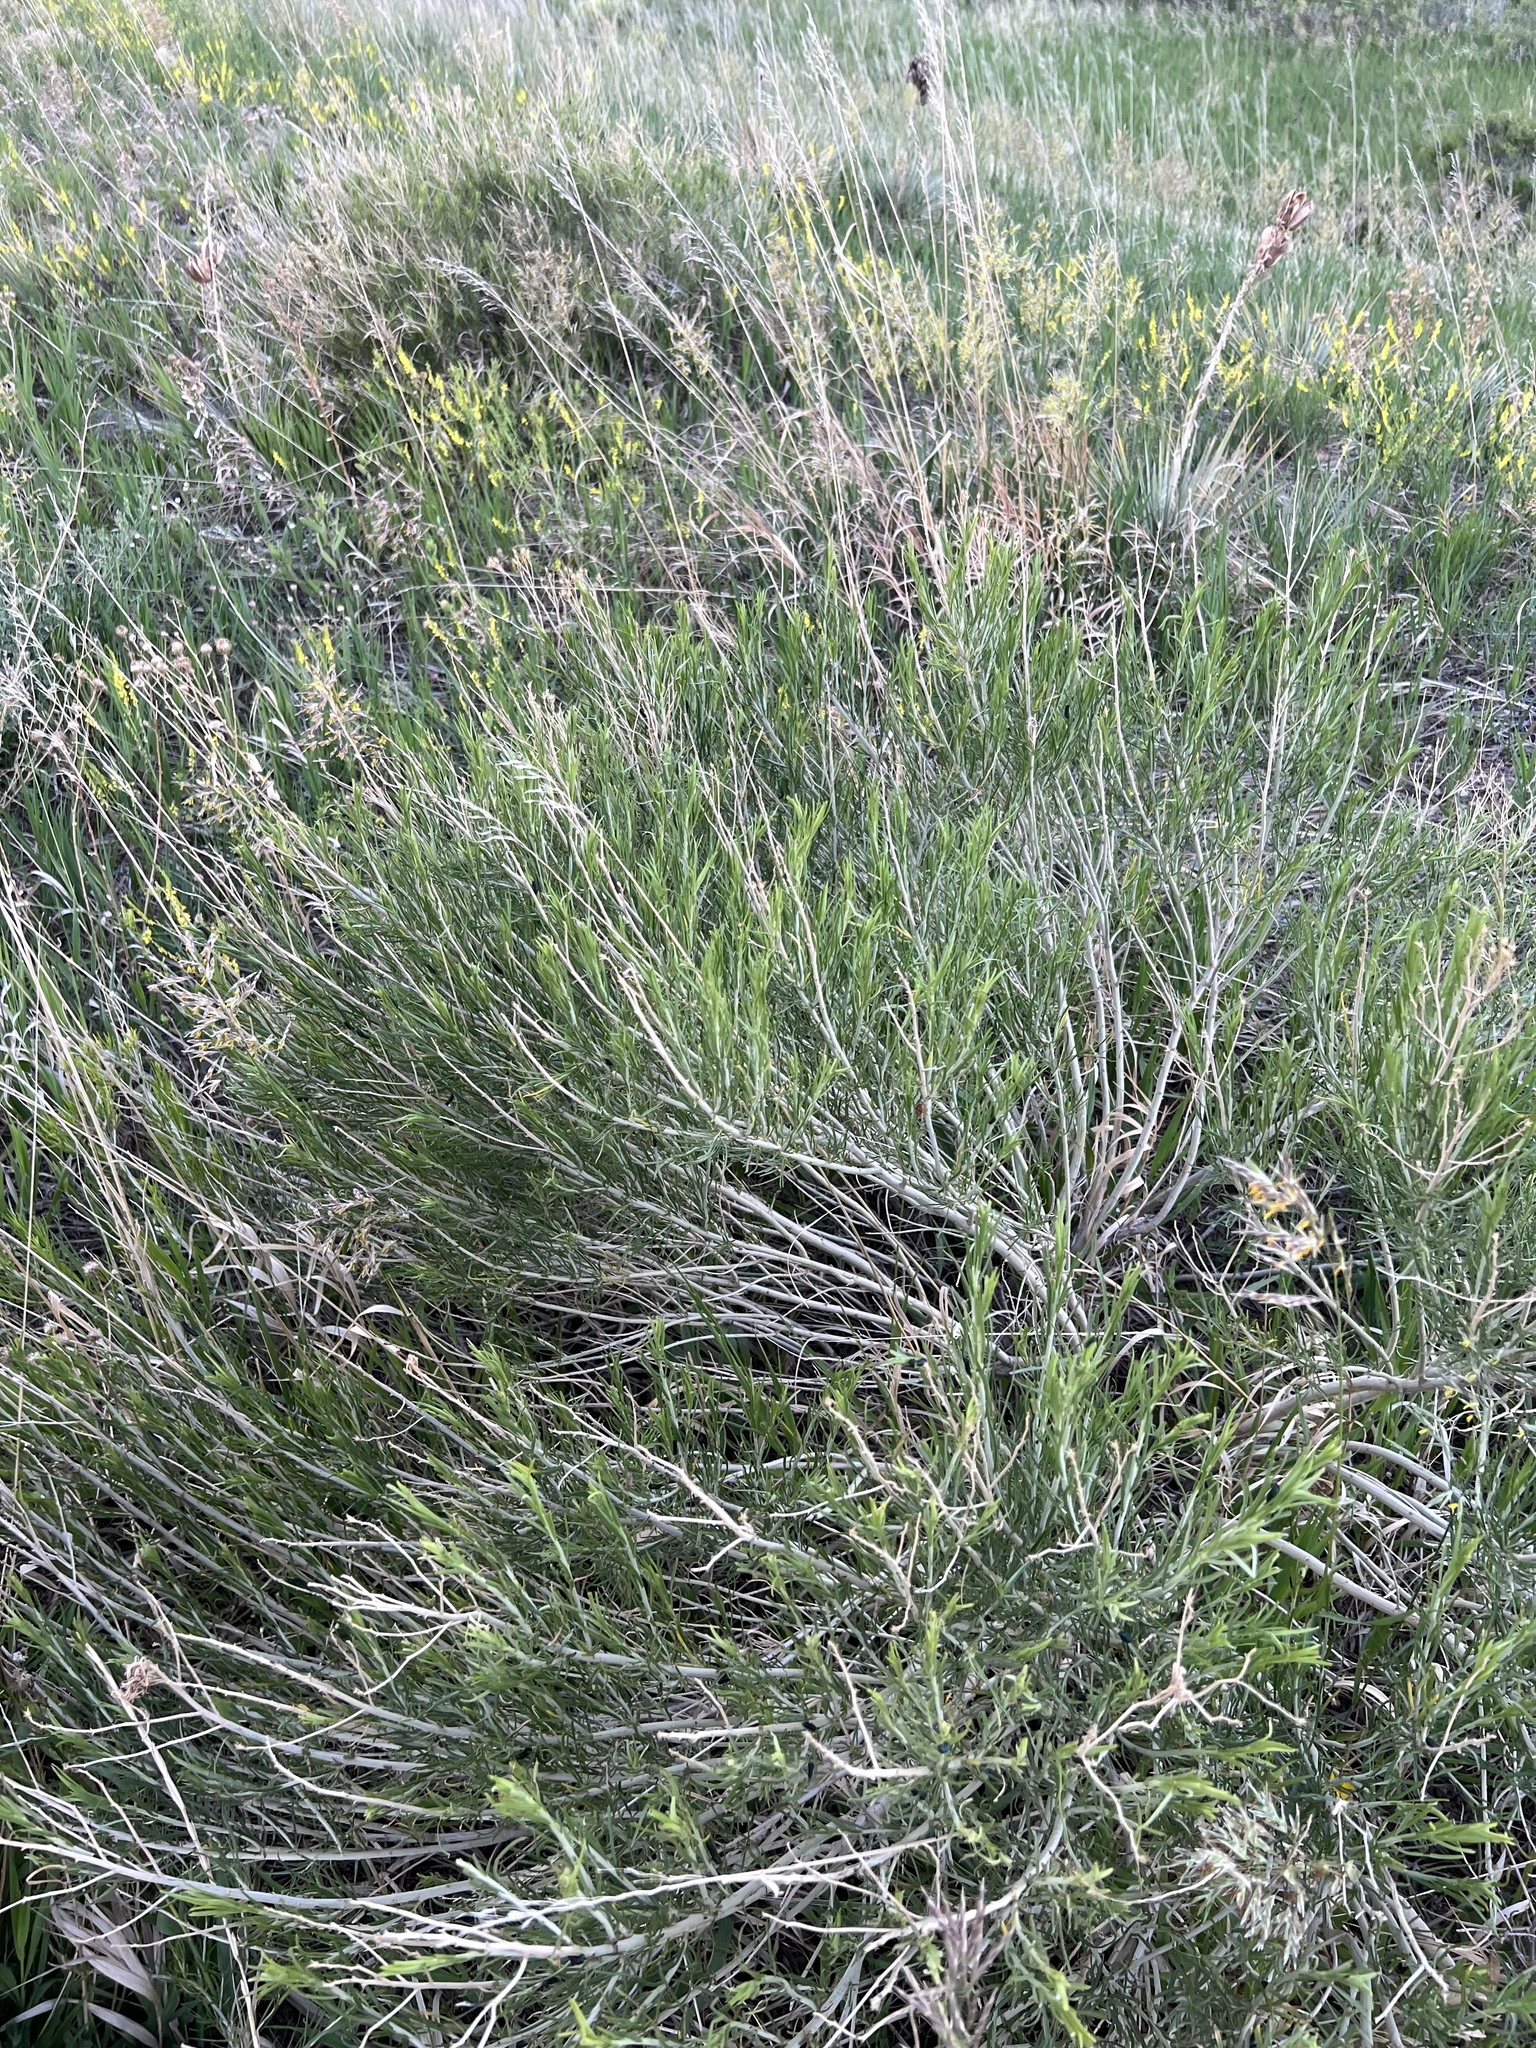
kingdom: Plantae
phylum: Tracheophyta
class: Magnoliopsida
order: Asterales
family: Asteraceae
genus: Ericameria
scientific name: Ericameria nauseosa
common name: Rubber rabbitbrush
